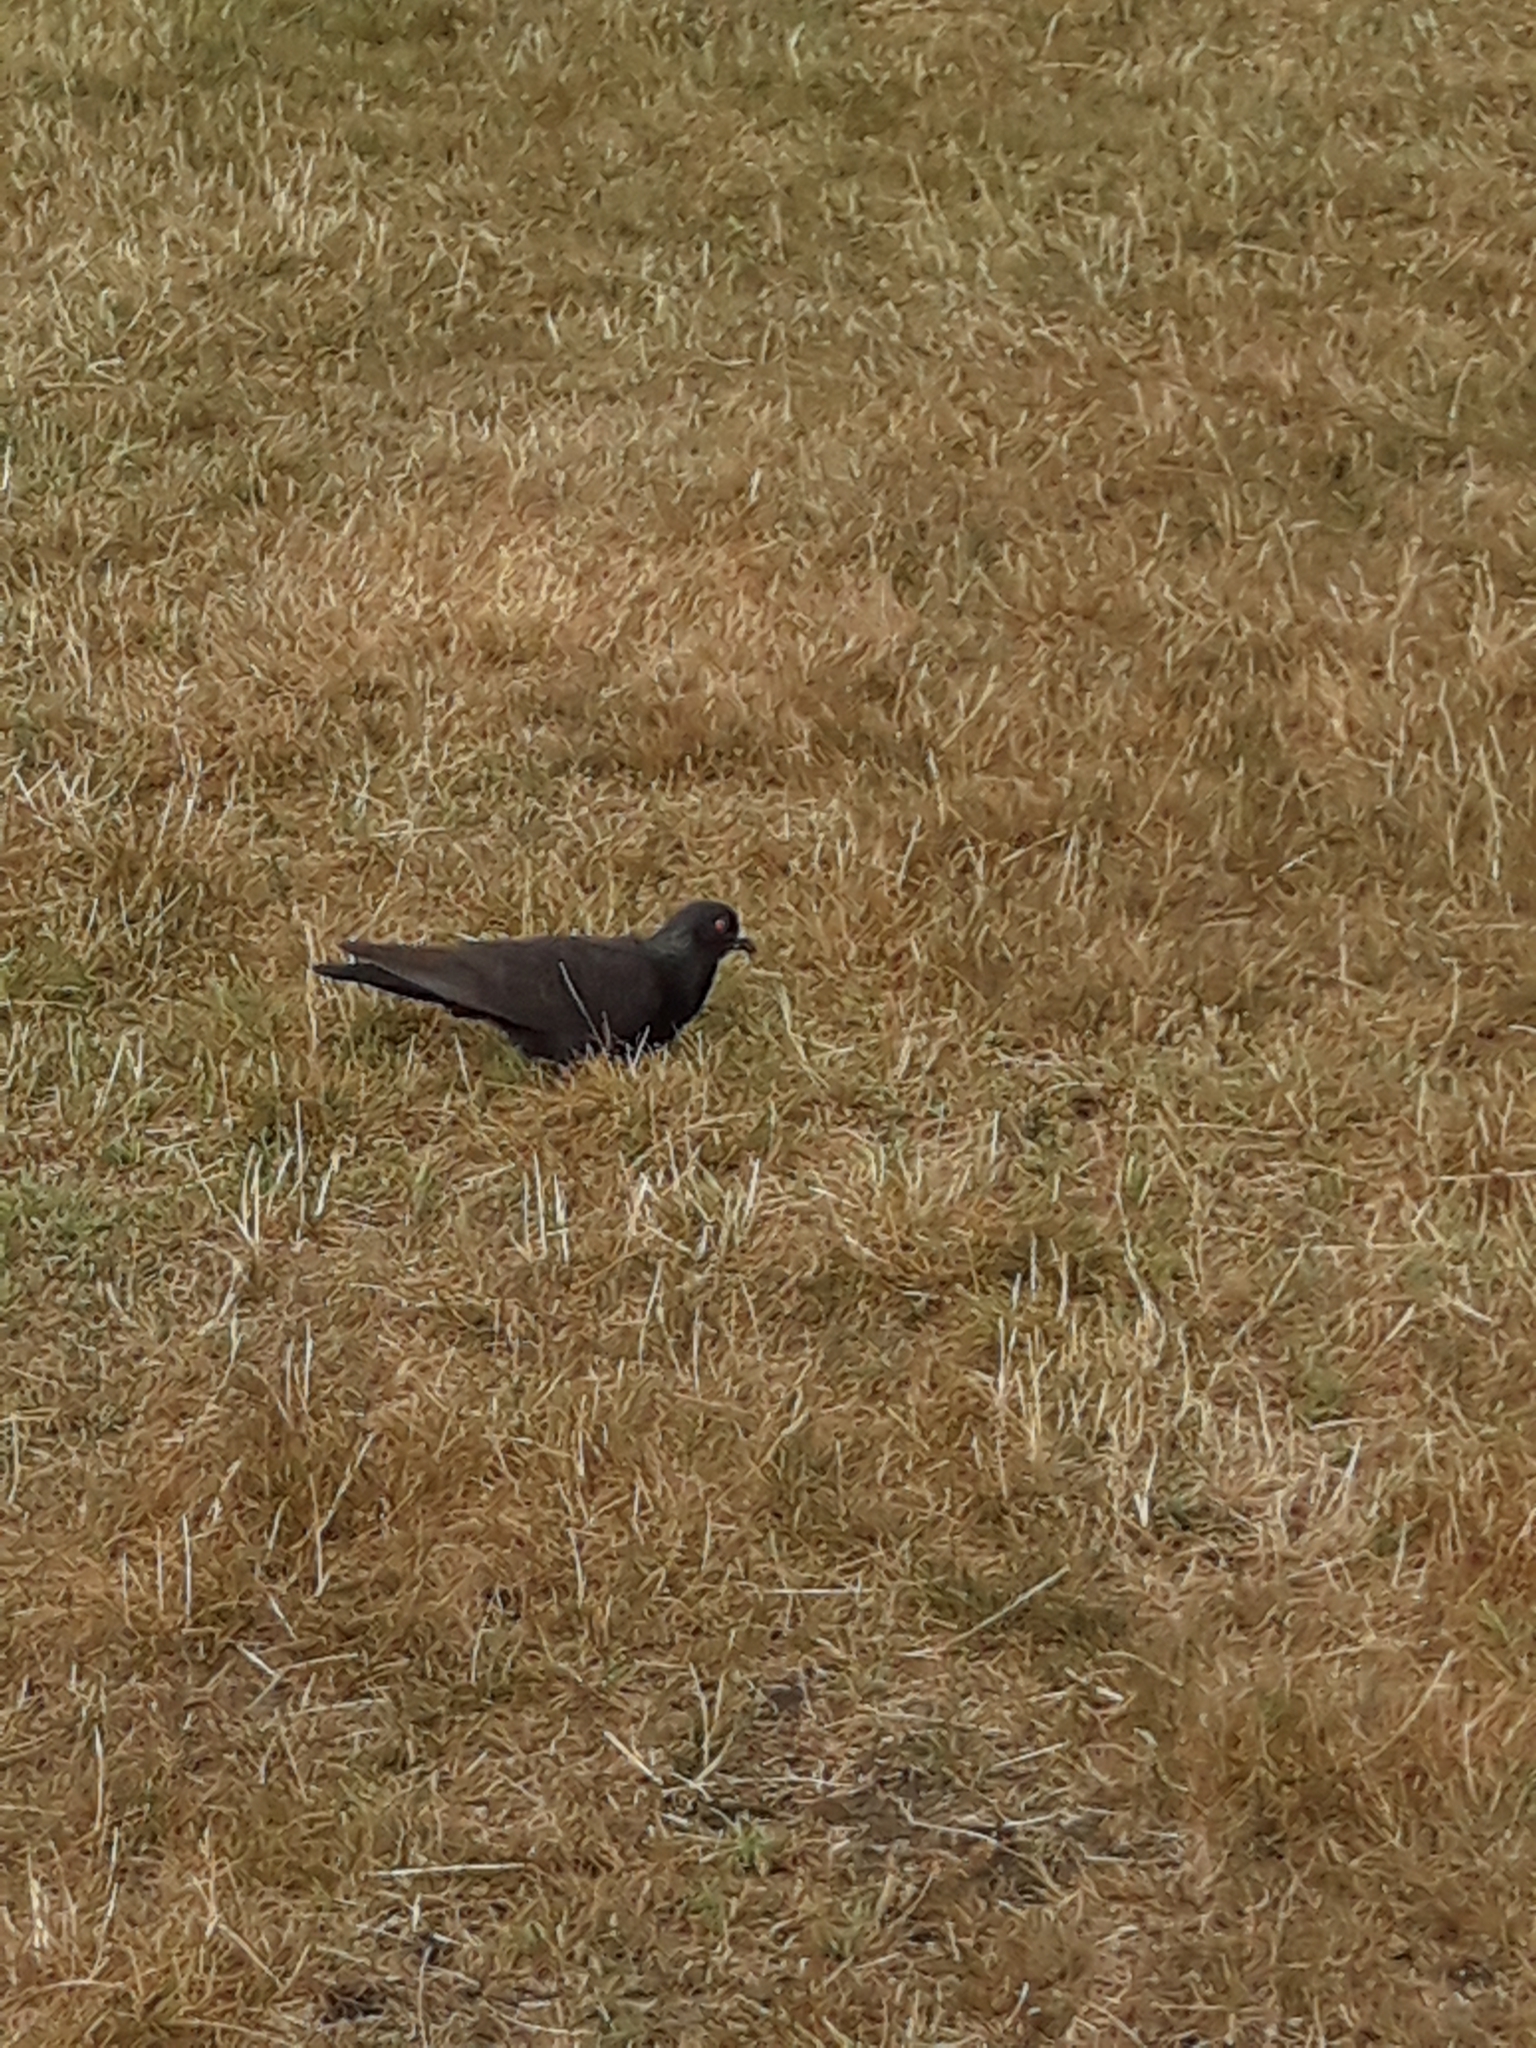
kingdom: Animalia
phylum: Chordata
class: Aves
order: Columbiformes
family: Columbidae
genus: Columba
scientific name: Columba livia
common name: Rock pigeon
